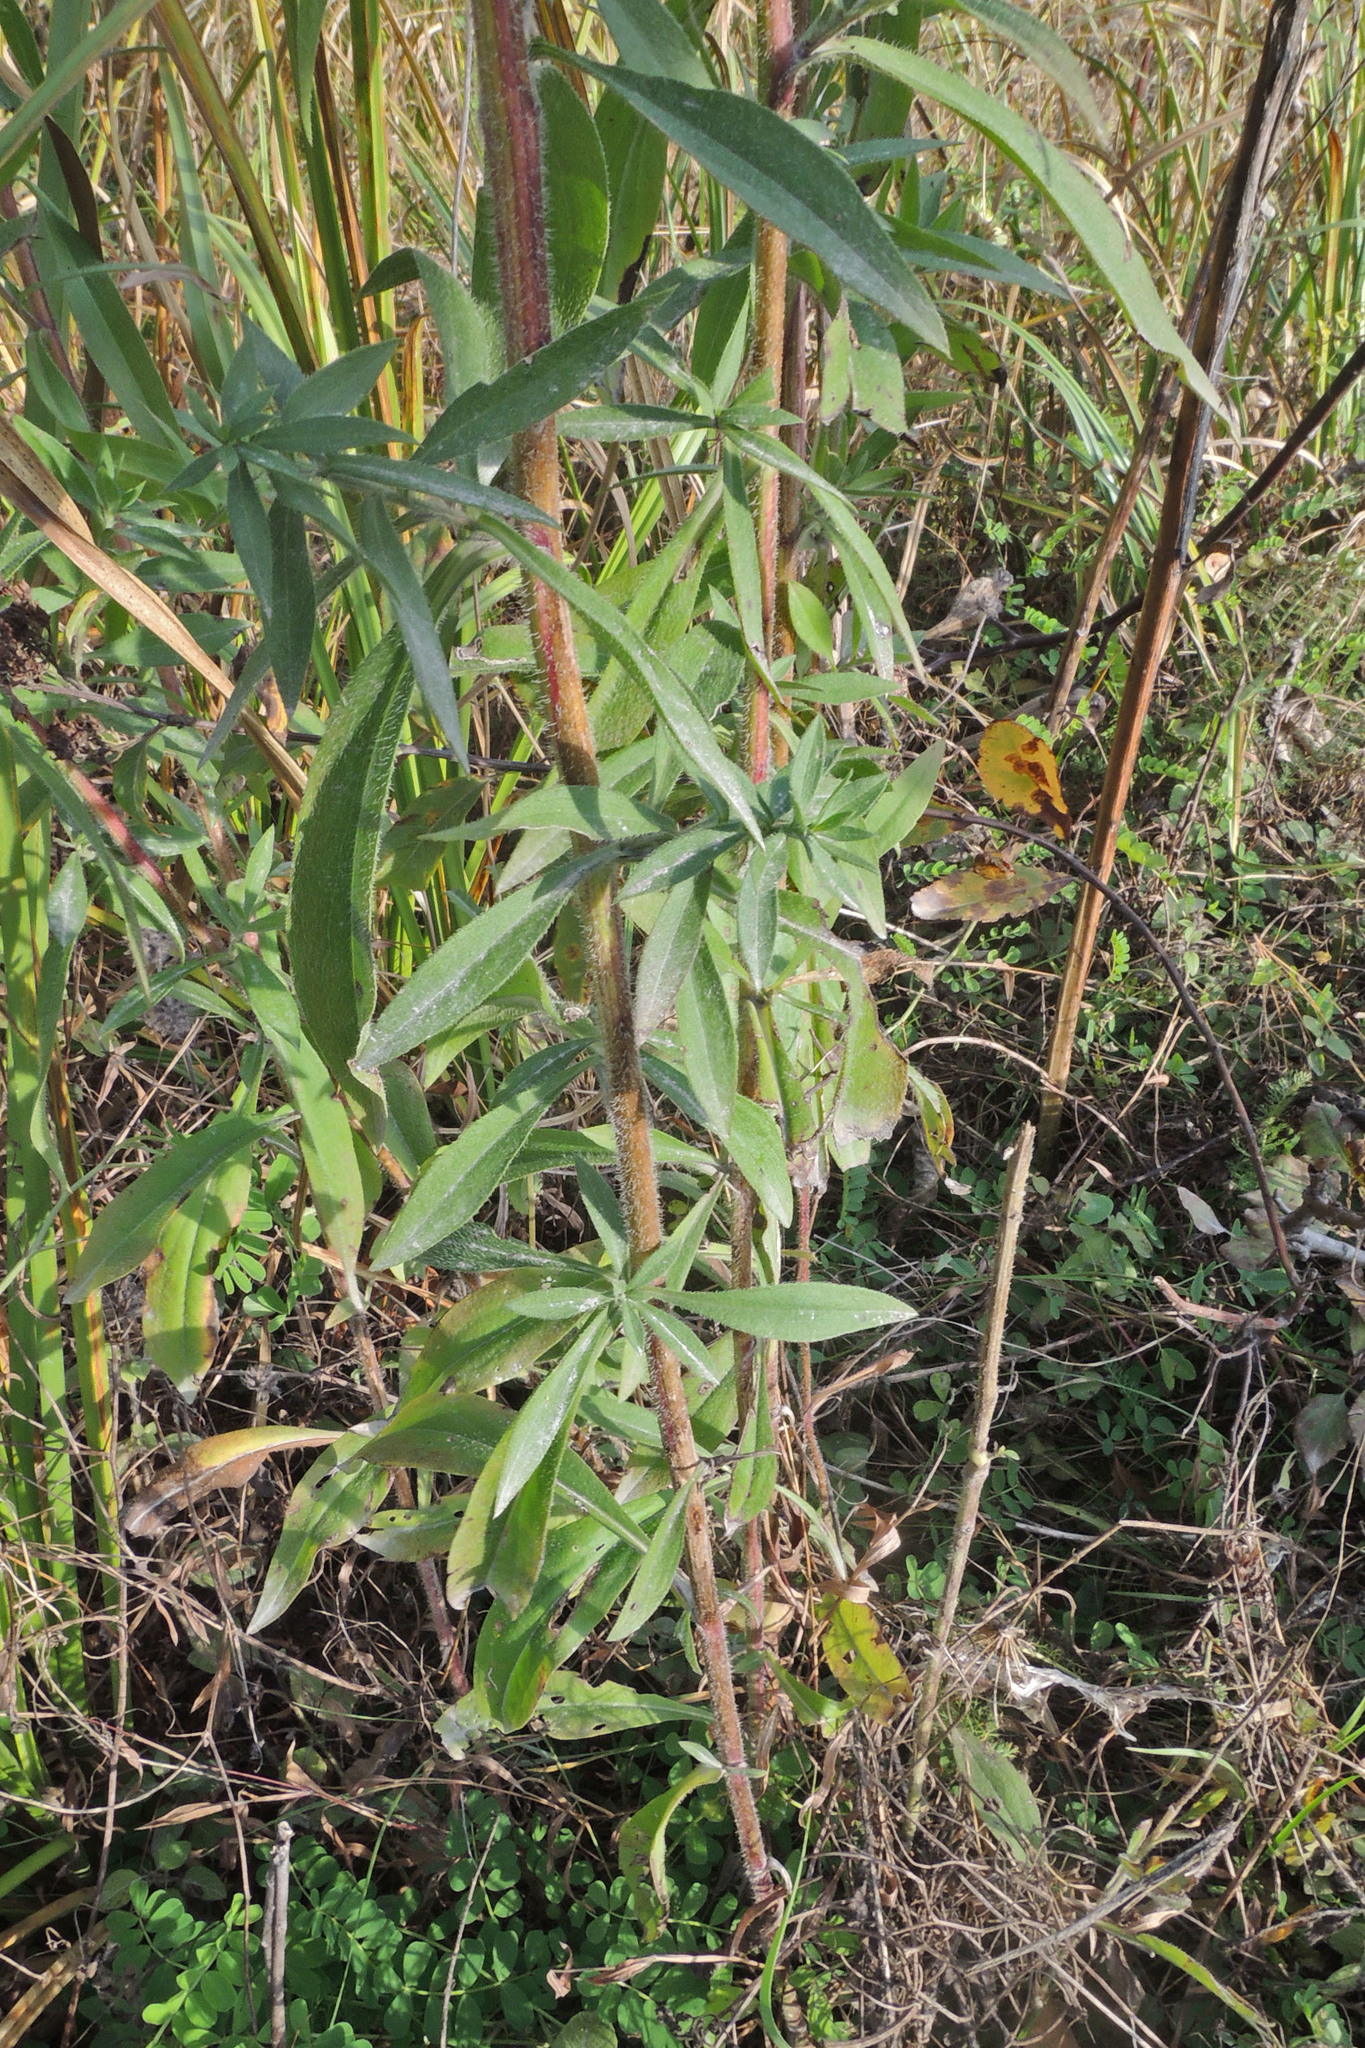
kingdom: Plantae
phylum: Tracheophyta
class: Magnoliopsida
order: Asterales
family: Asteraceae
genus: Symphyotrichum
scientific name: Symphyotrichum pilosum
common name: Awl aster
